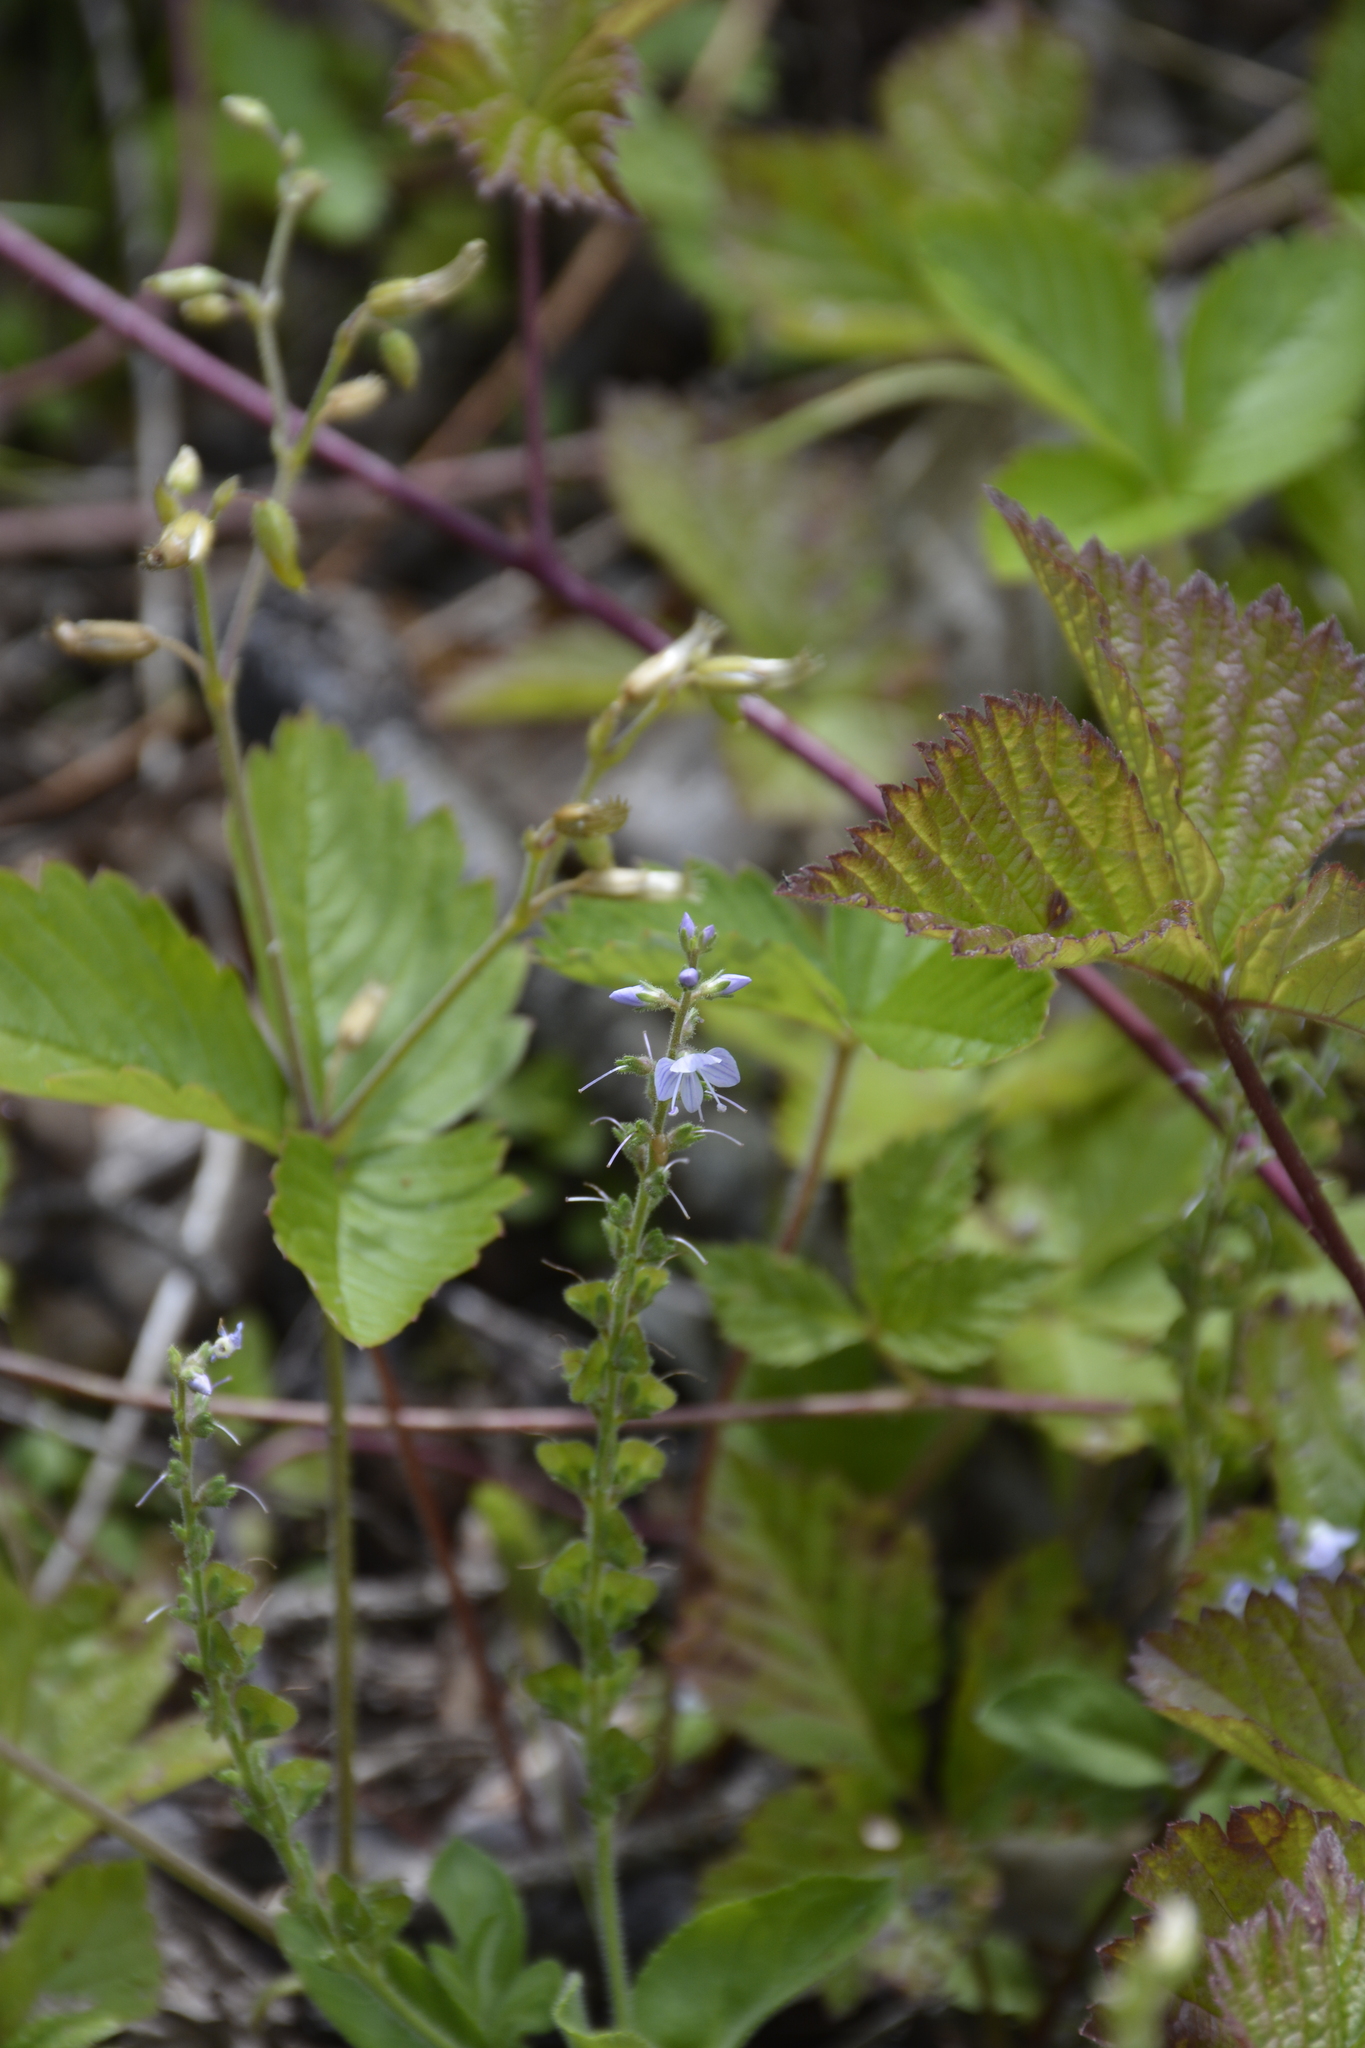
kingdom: Plantae
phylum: Tracheophyta
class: Magnoliopsida
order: Lamiales
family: Plantaginaceae
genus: Veronica
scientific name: Veronica officinalis
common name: Common speedwell
